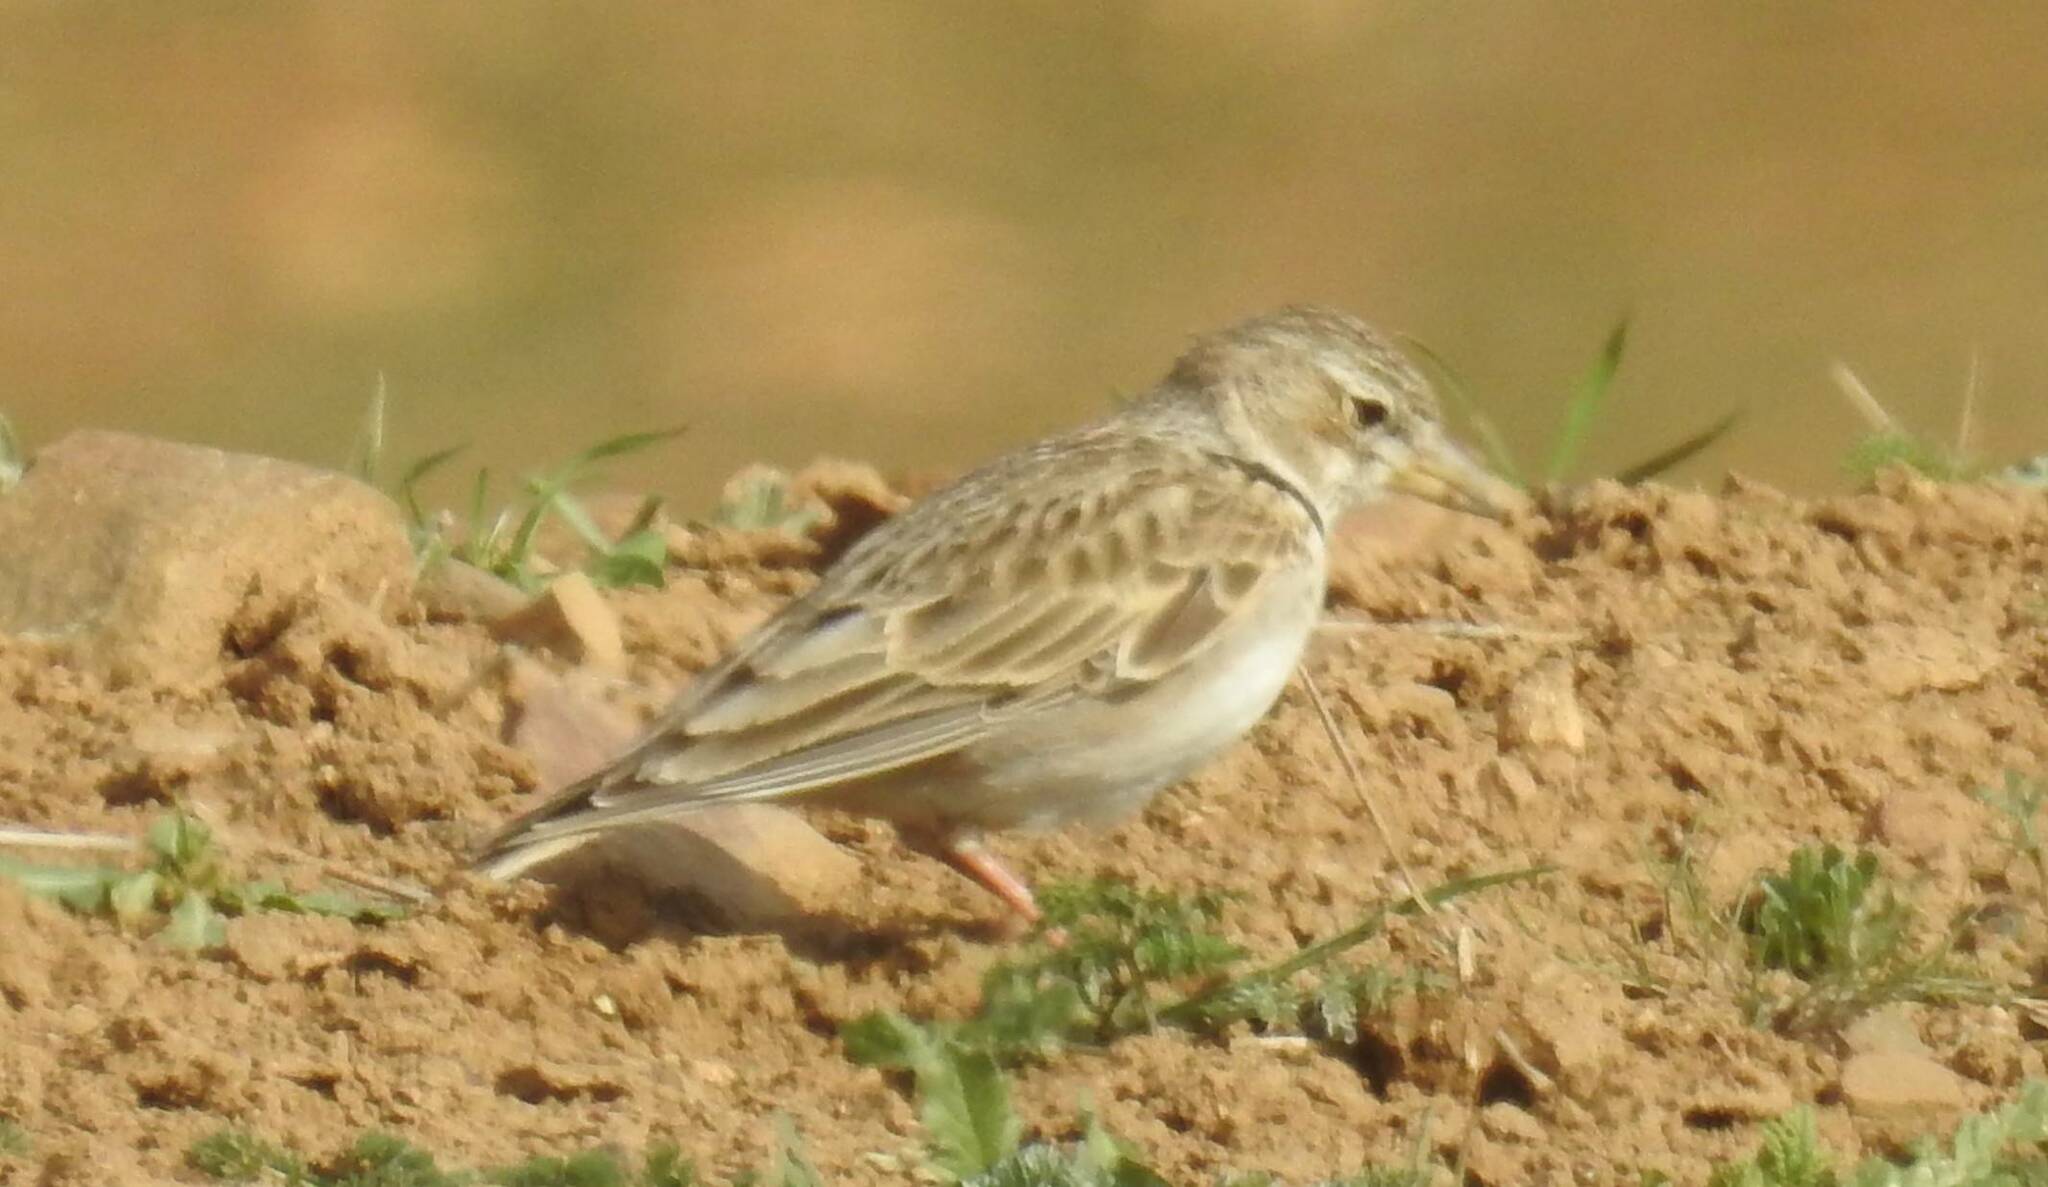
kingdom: Animalia
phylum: Chordata
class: Aves
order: Passeriformes
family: Alaudidae
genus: Melanocorypha
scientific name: Melanocorypha calandra
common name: Calandra lark
